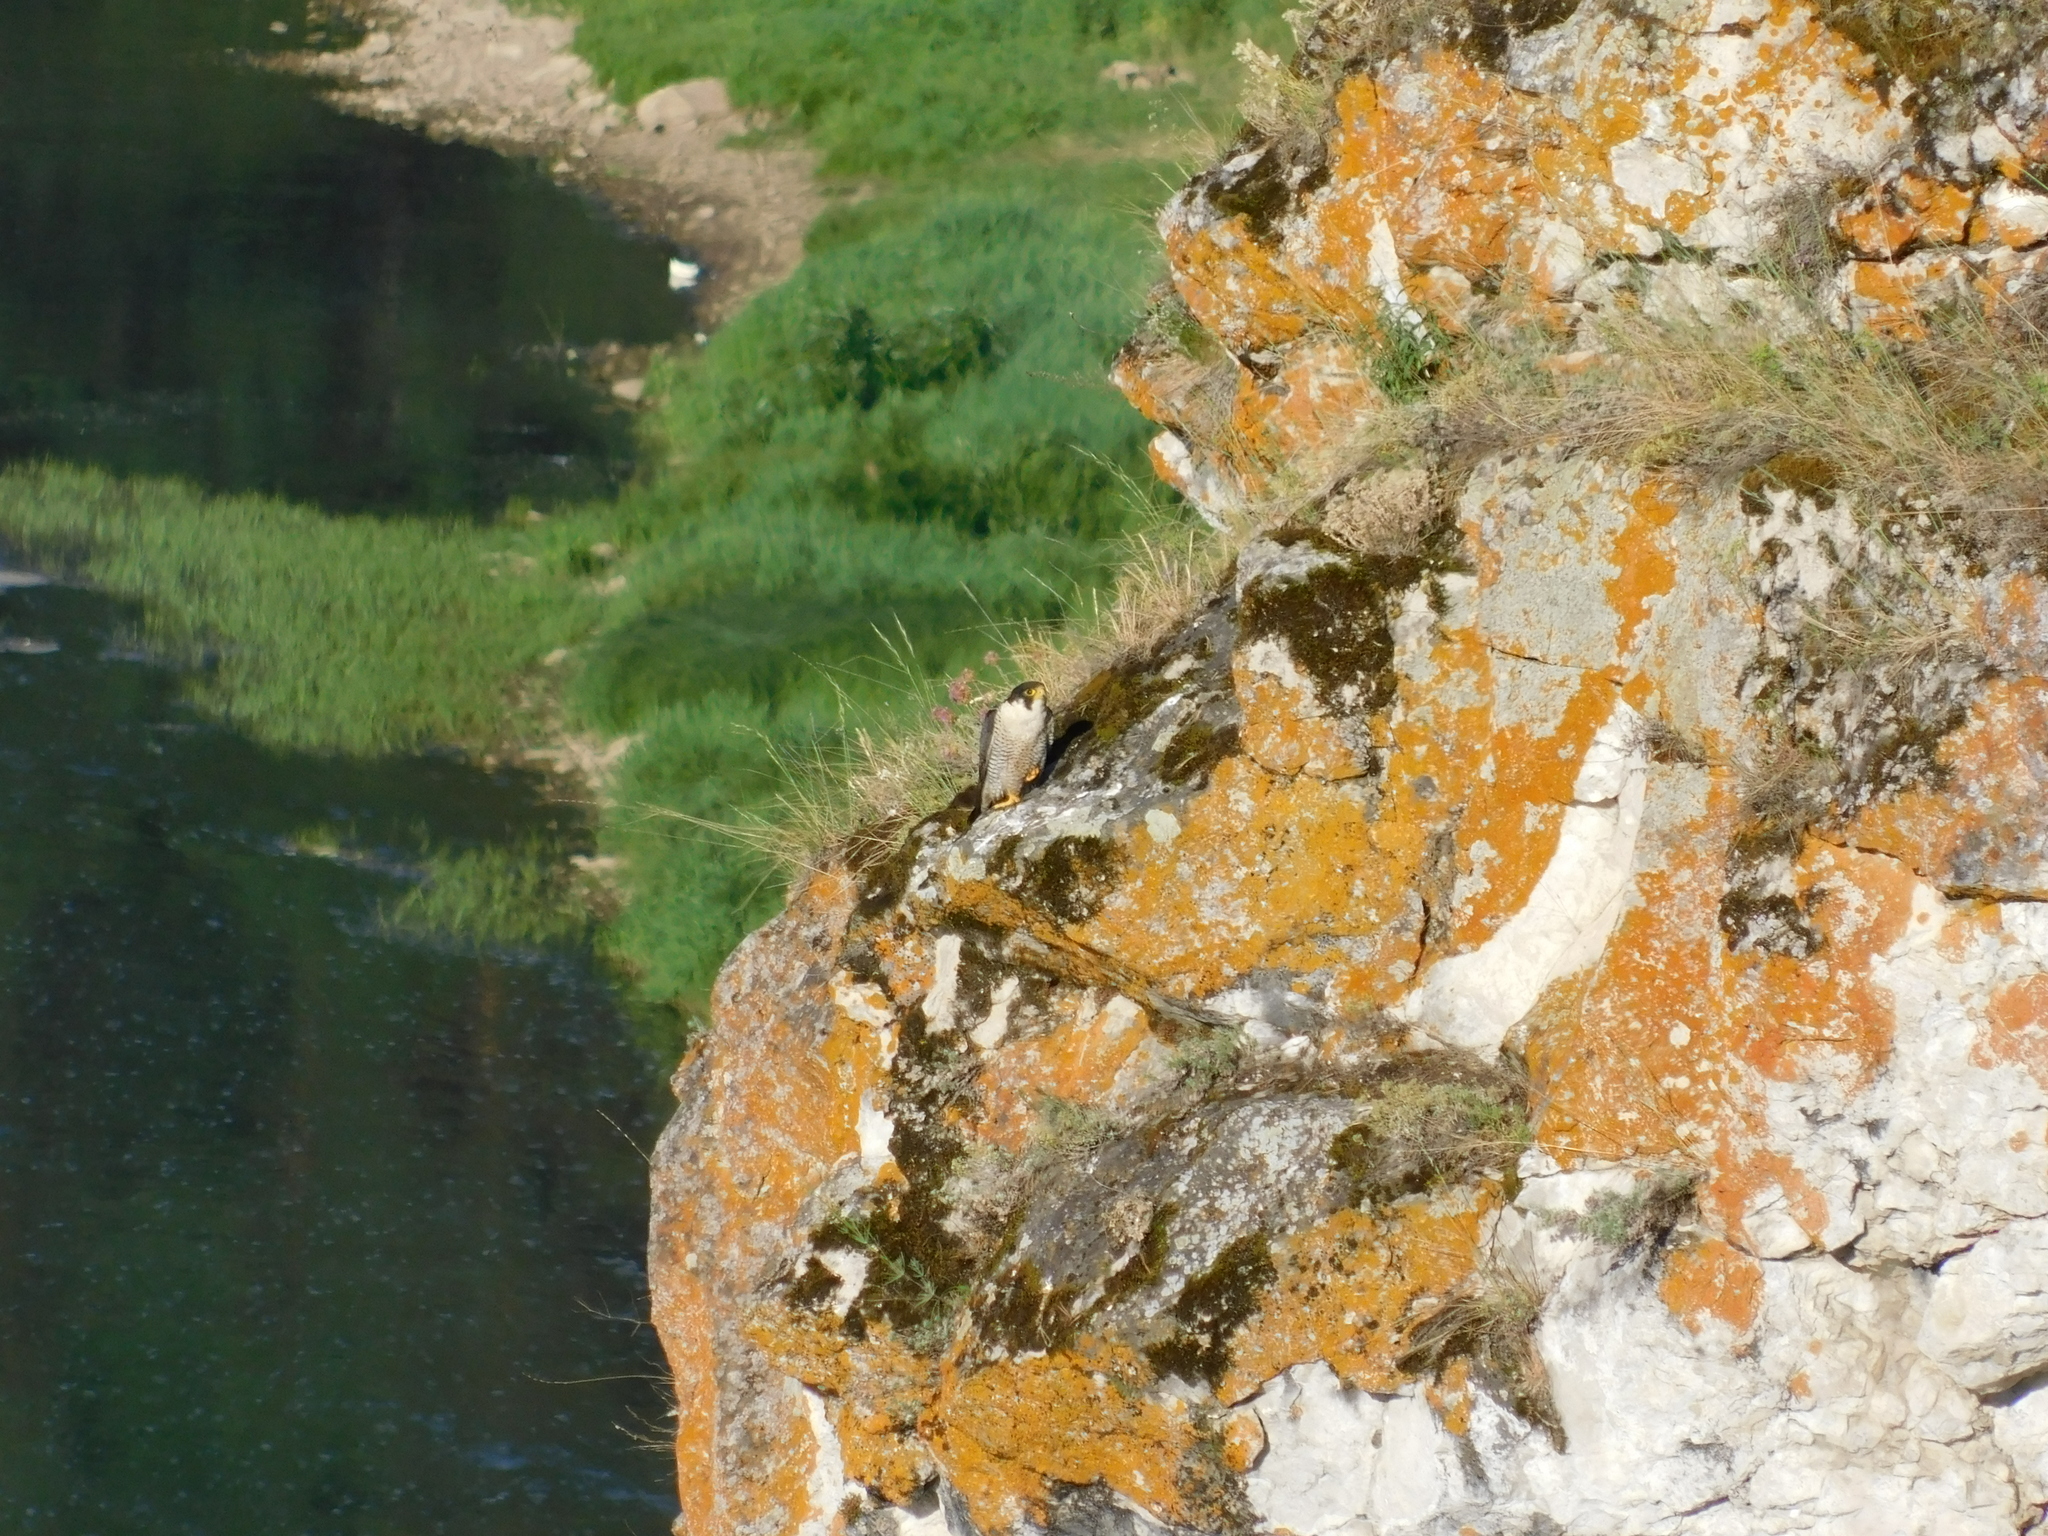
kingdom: Animalia
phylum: Chordata
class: Aves
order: Falconiformes
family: Falconidae
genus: Falco
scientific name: Falco peregrinus
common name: Peregrine falcon
